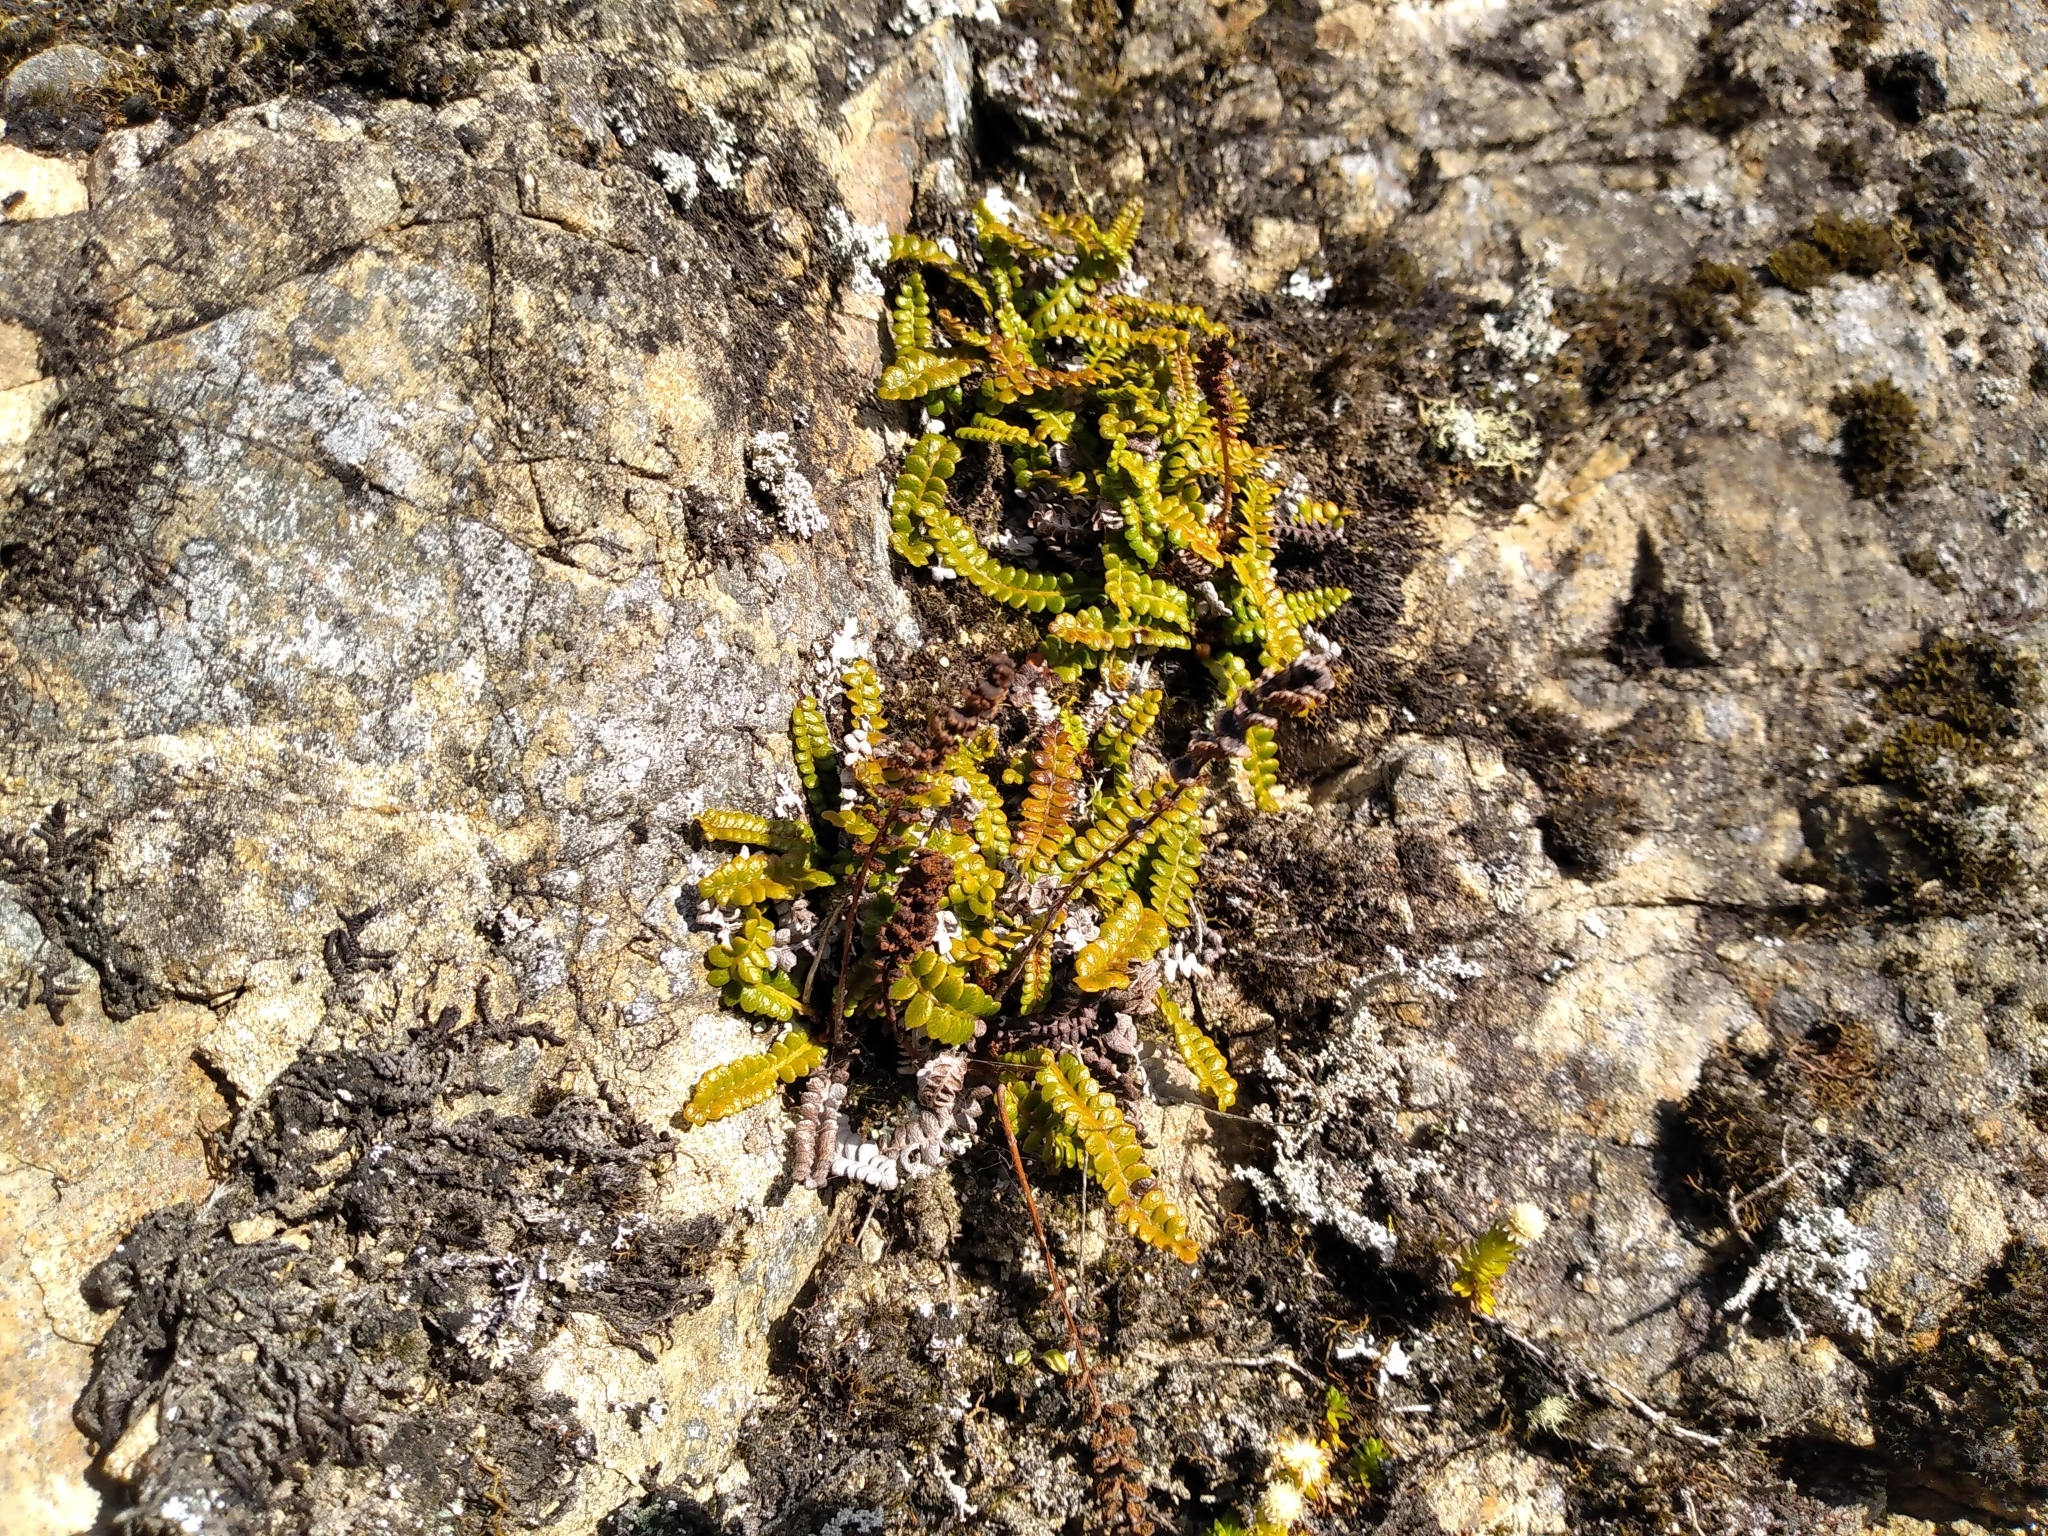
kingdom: Plantae
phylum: Tracheophyta
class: Polypodiopsida
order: Polypodiales
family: Blechnaceae
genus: Austroblechnum
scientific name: Austroblechnum penna-marina
